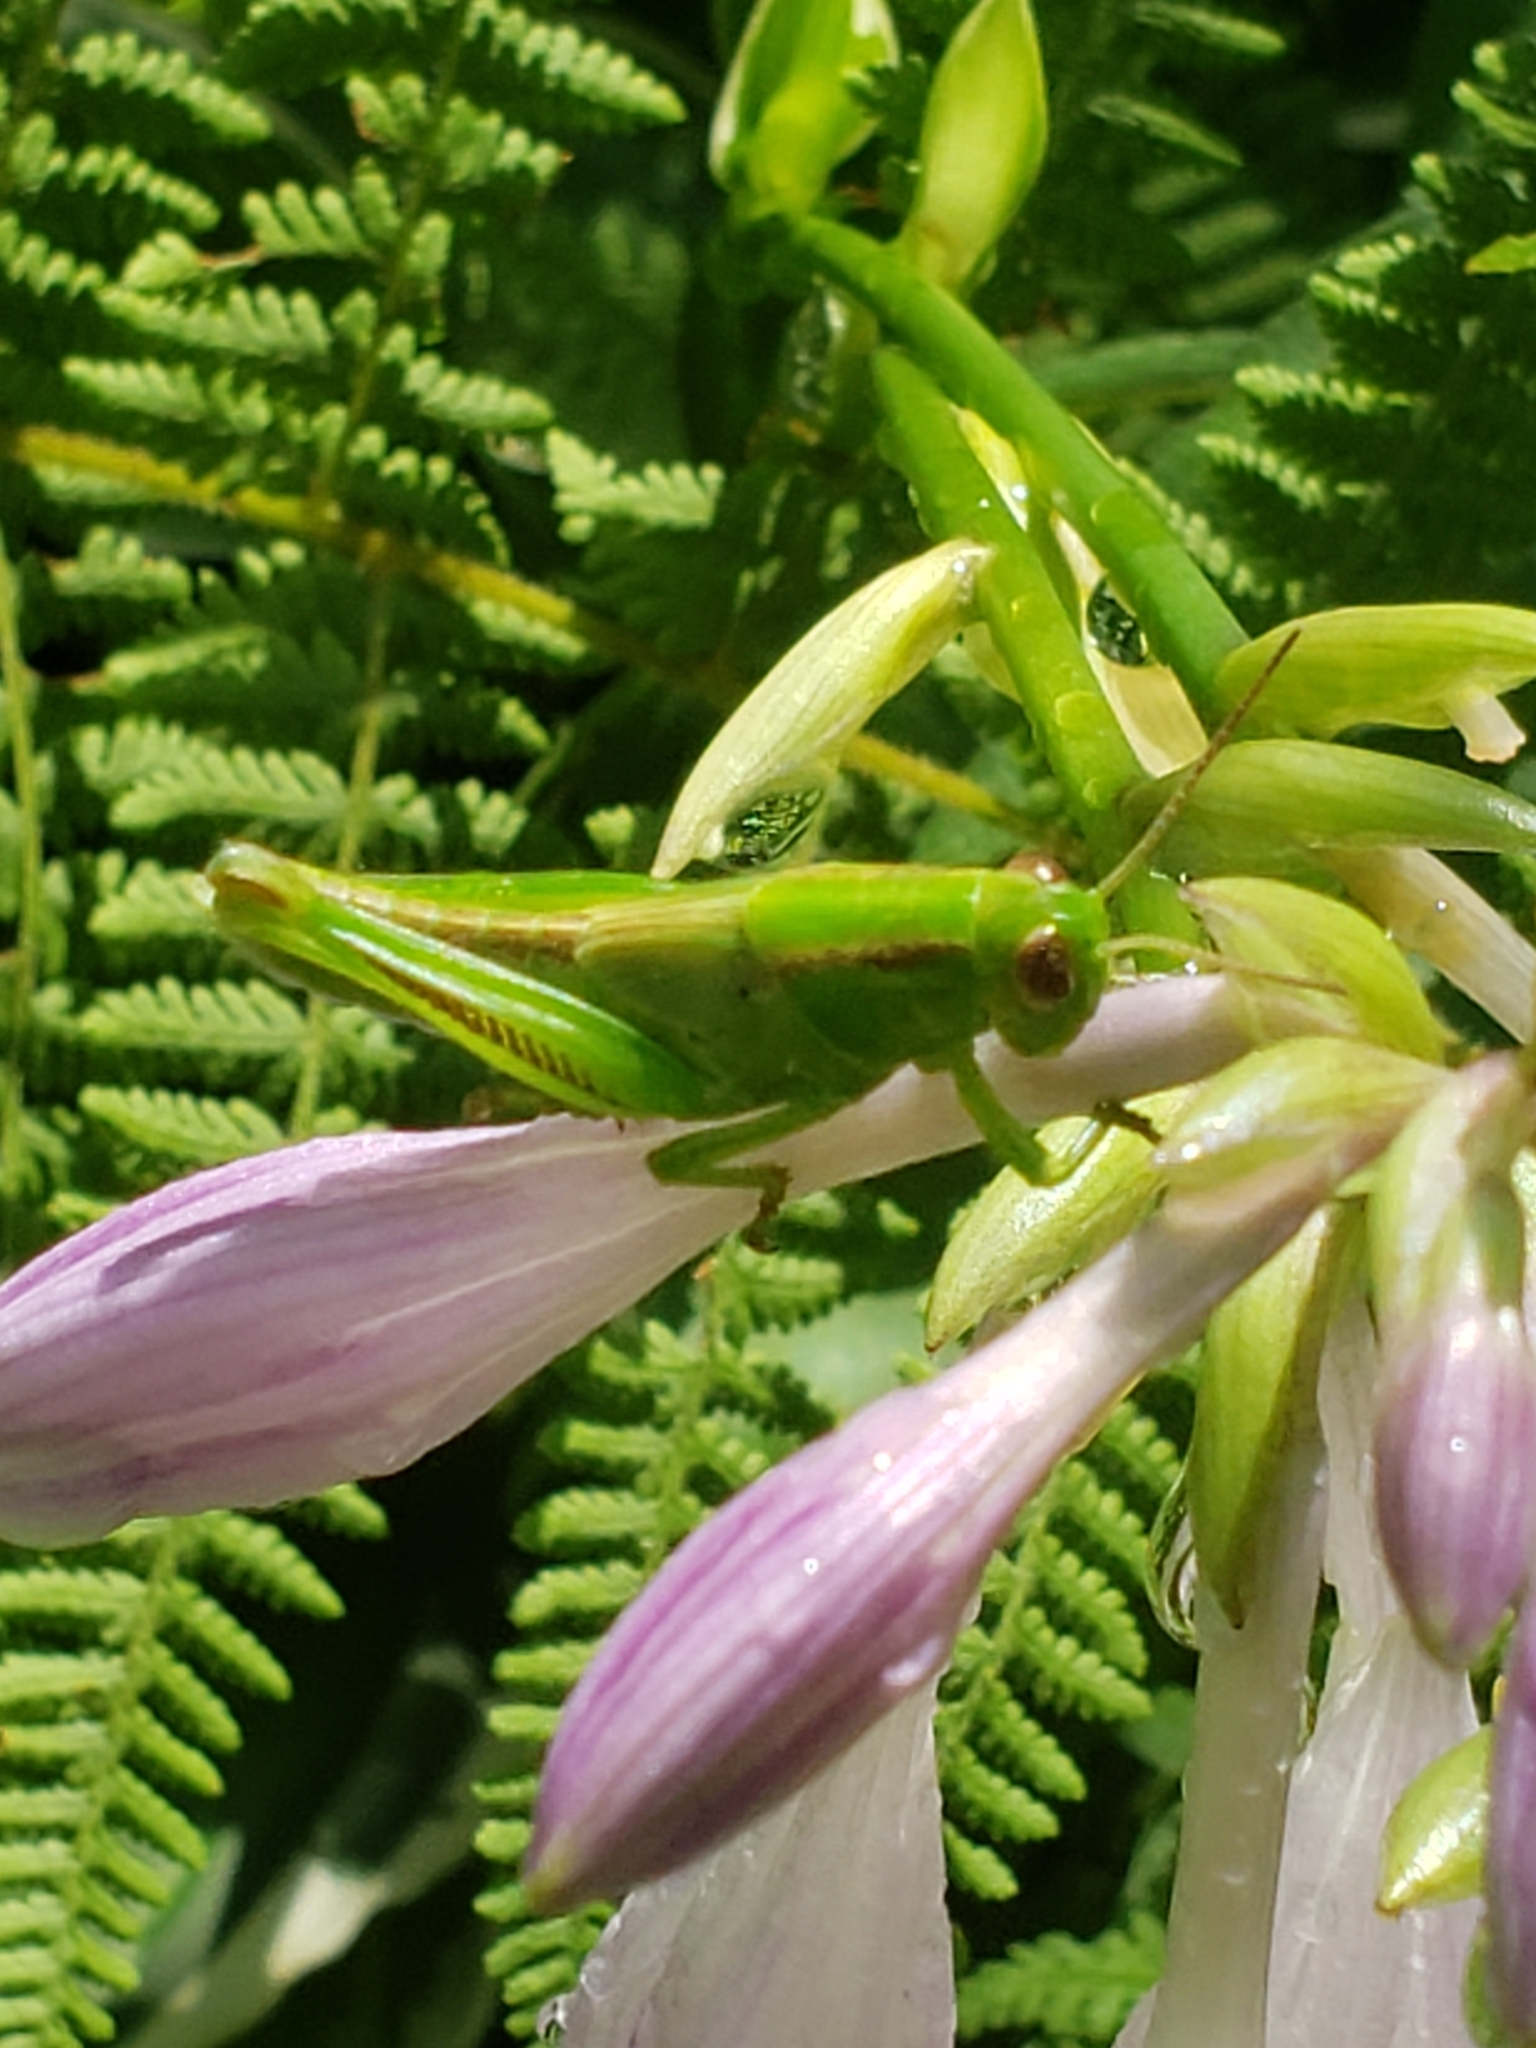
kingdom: Animalia
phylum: Arthropoda
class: Insecta
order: Orthoptera
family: Acrididae
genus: Melanoplus
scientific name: Melanoplus bivittatus
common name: Two-striped grasshopper
